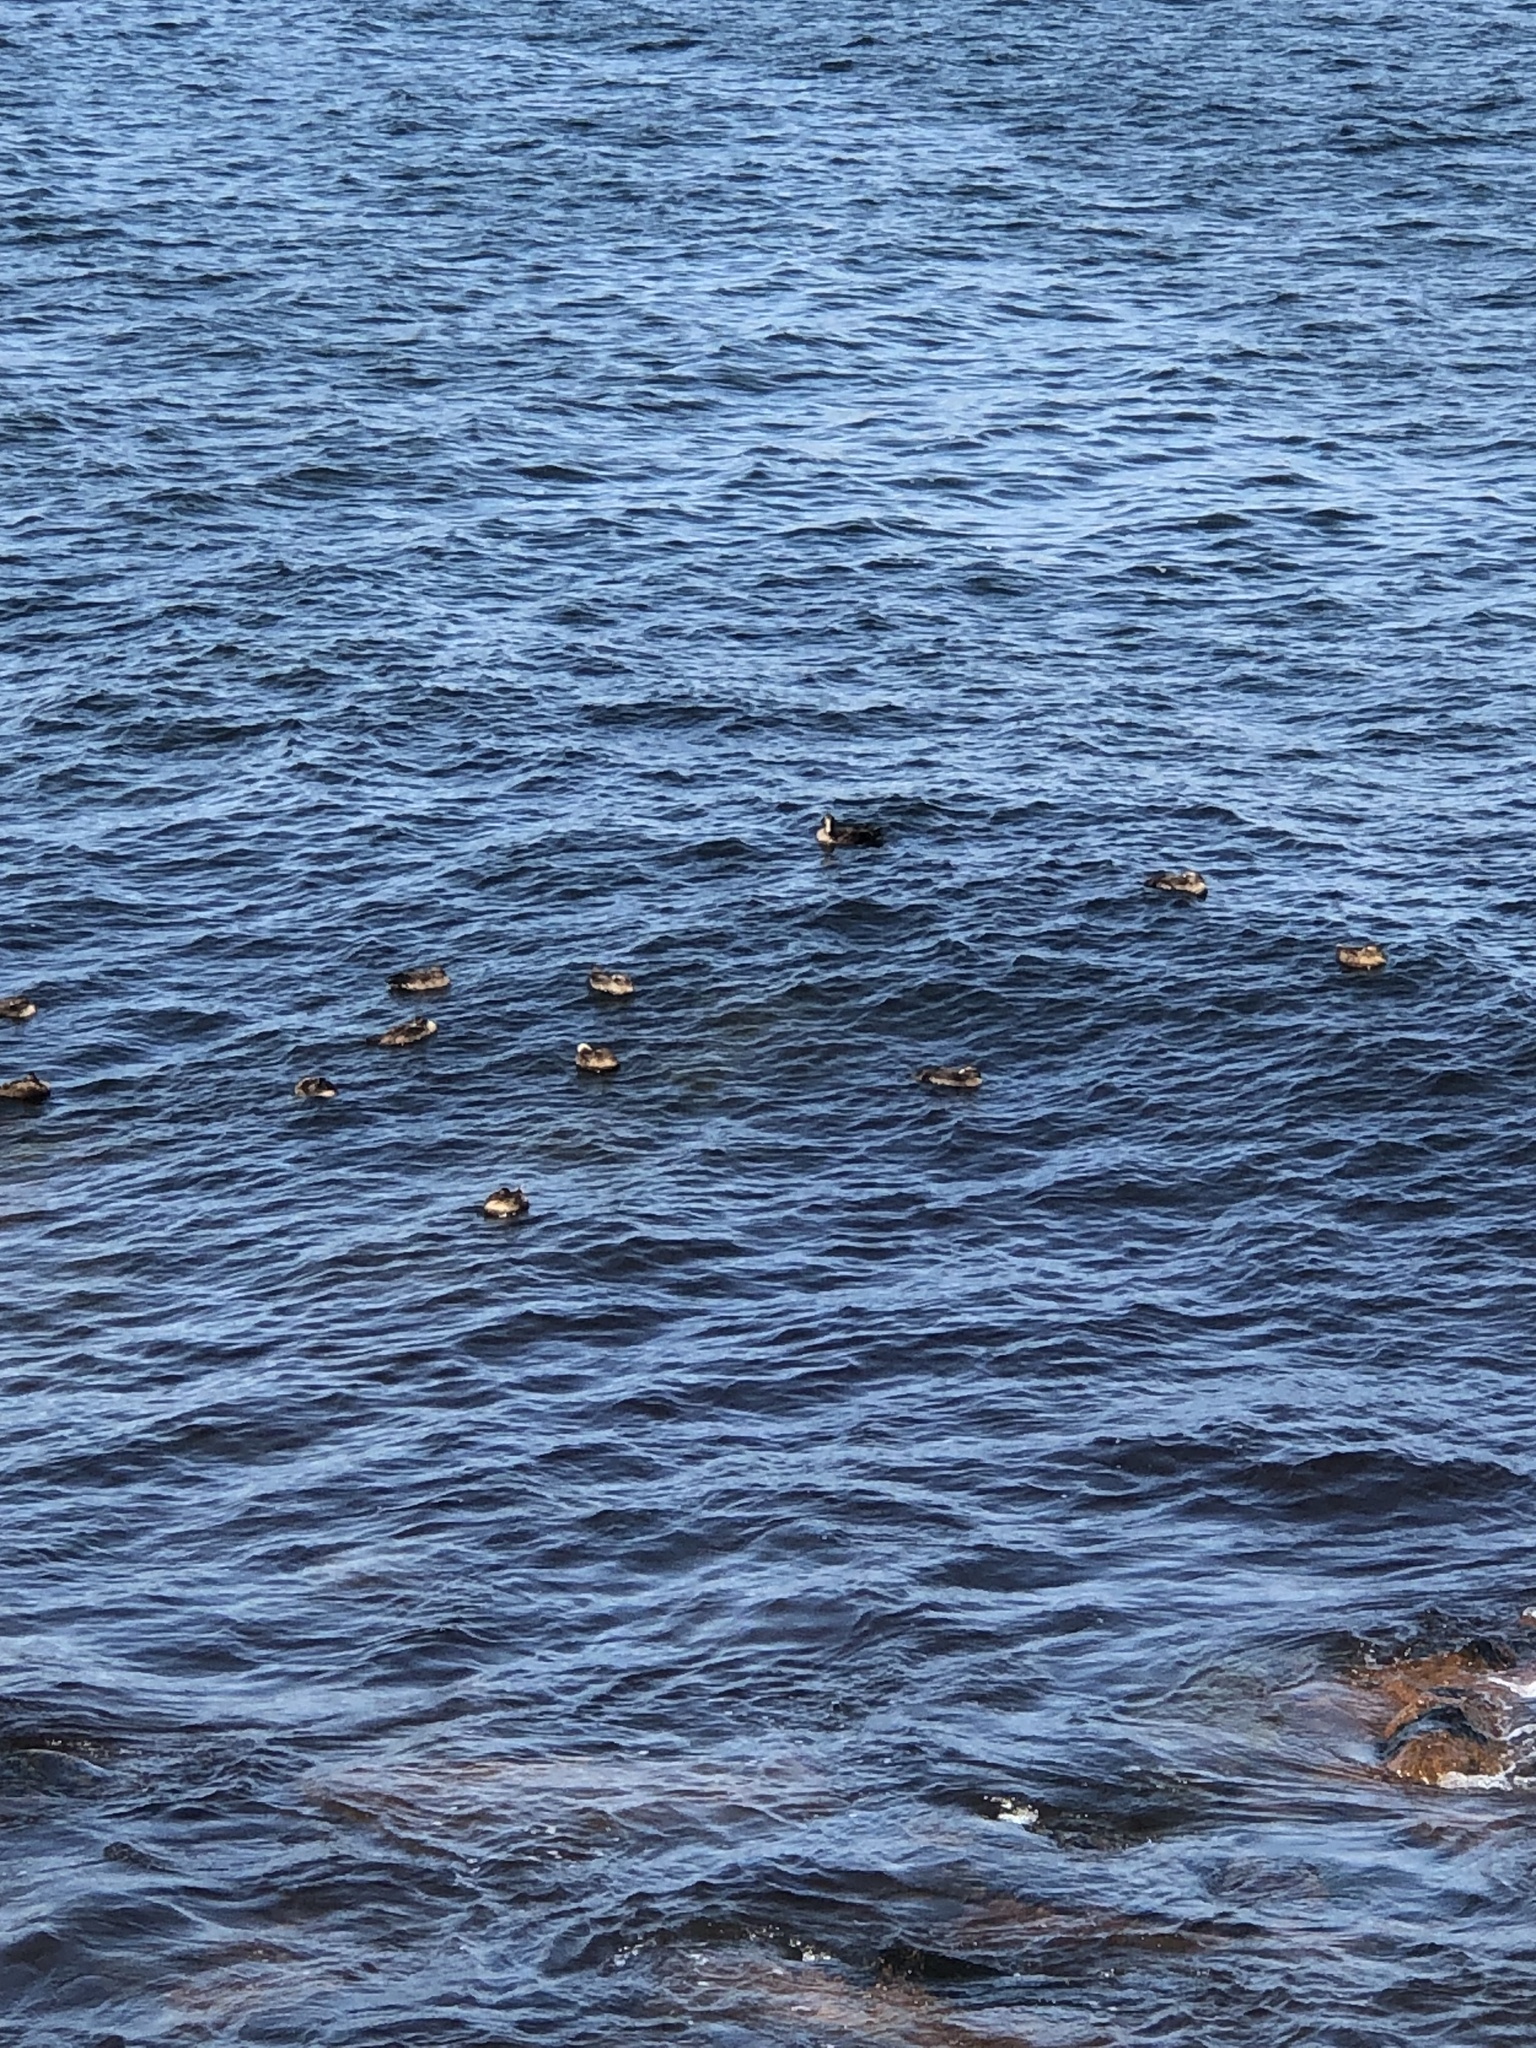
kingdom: Animalia
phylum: Chordata
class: Aves
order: Anseriformes
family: Anatidae
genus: Somateria
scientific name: Somateria mollissima
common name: Common eider
